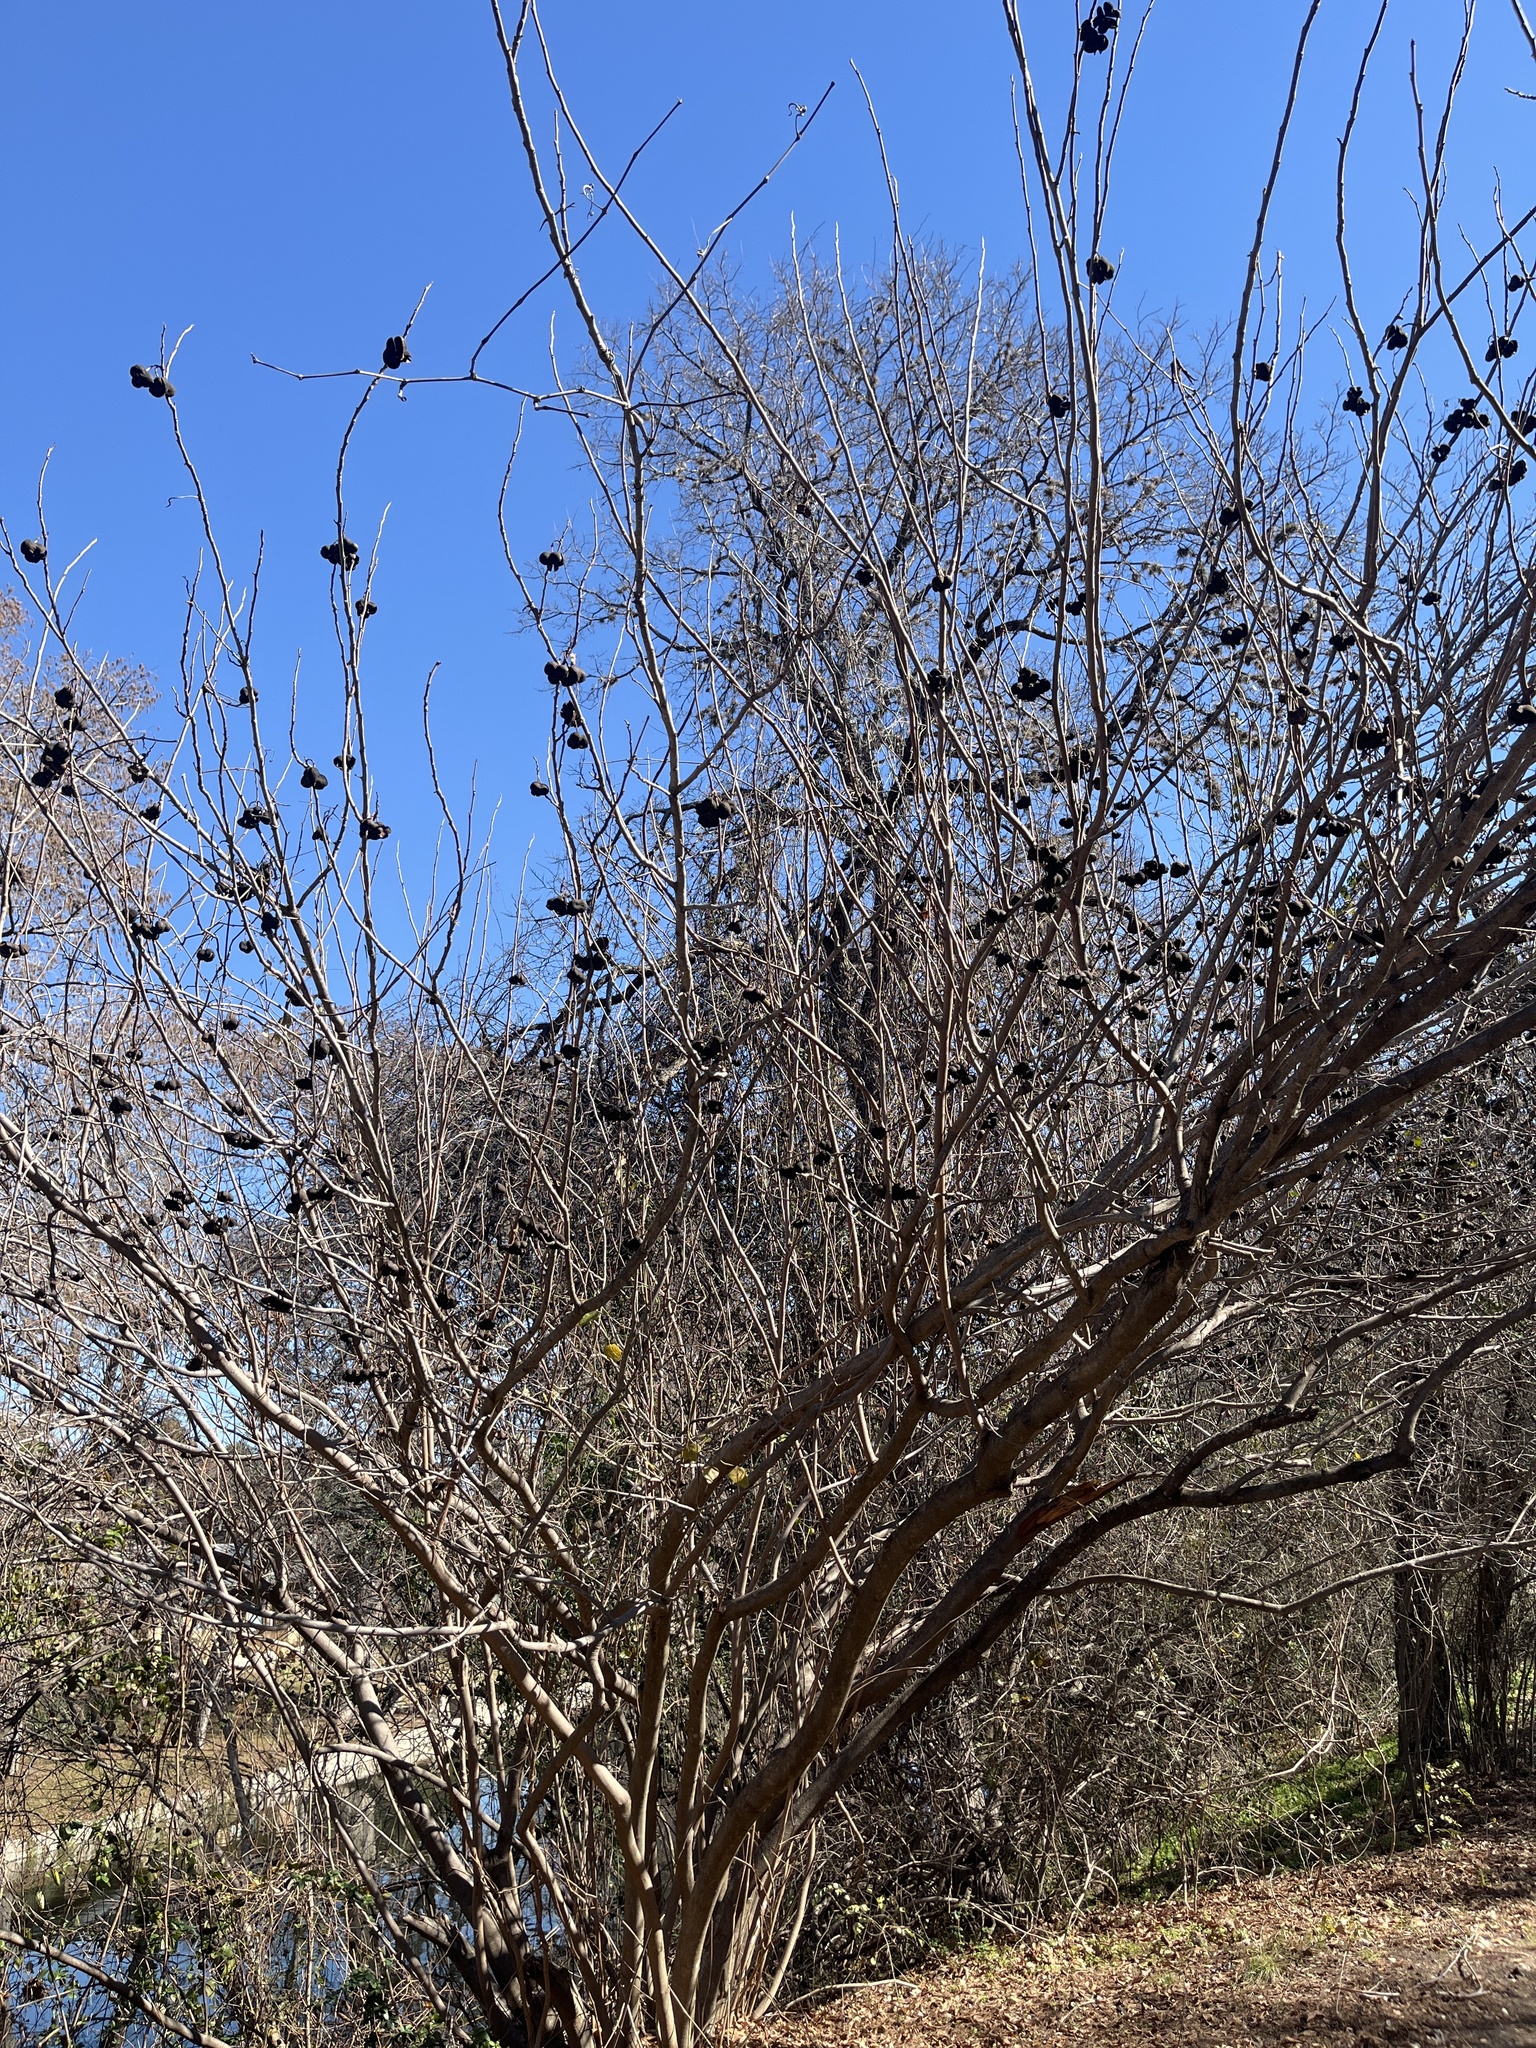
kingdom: Plantae
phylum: Tracheophyta
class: Magnoliopsida
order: Sapindales
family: Sapindaceae
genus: Ungnadia
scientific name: Ungnadia speciosa
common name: Texas-buckeye
